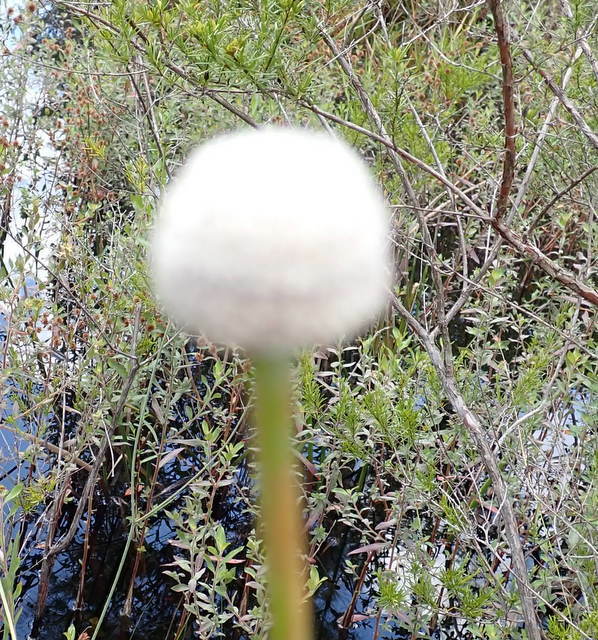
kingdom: Plantae
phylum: Tracheophyta
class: Liliopsida
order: Poales
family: Eriocaulaceae
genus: Eriocaulon
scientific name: Eriocaulon decangulare
